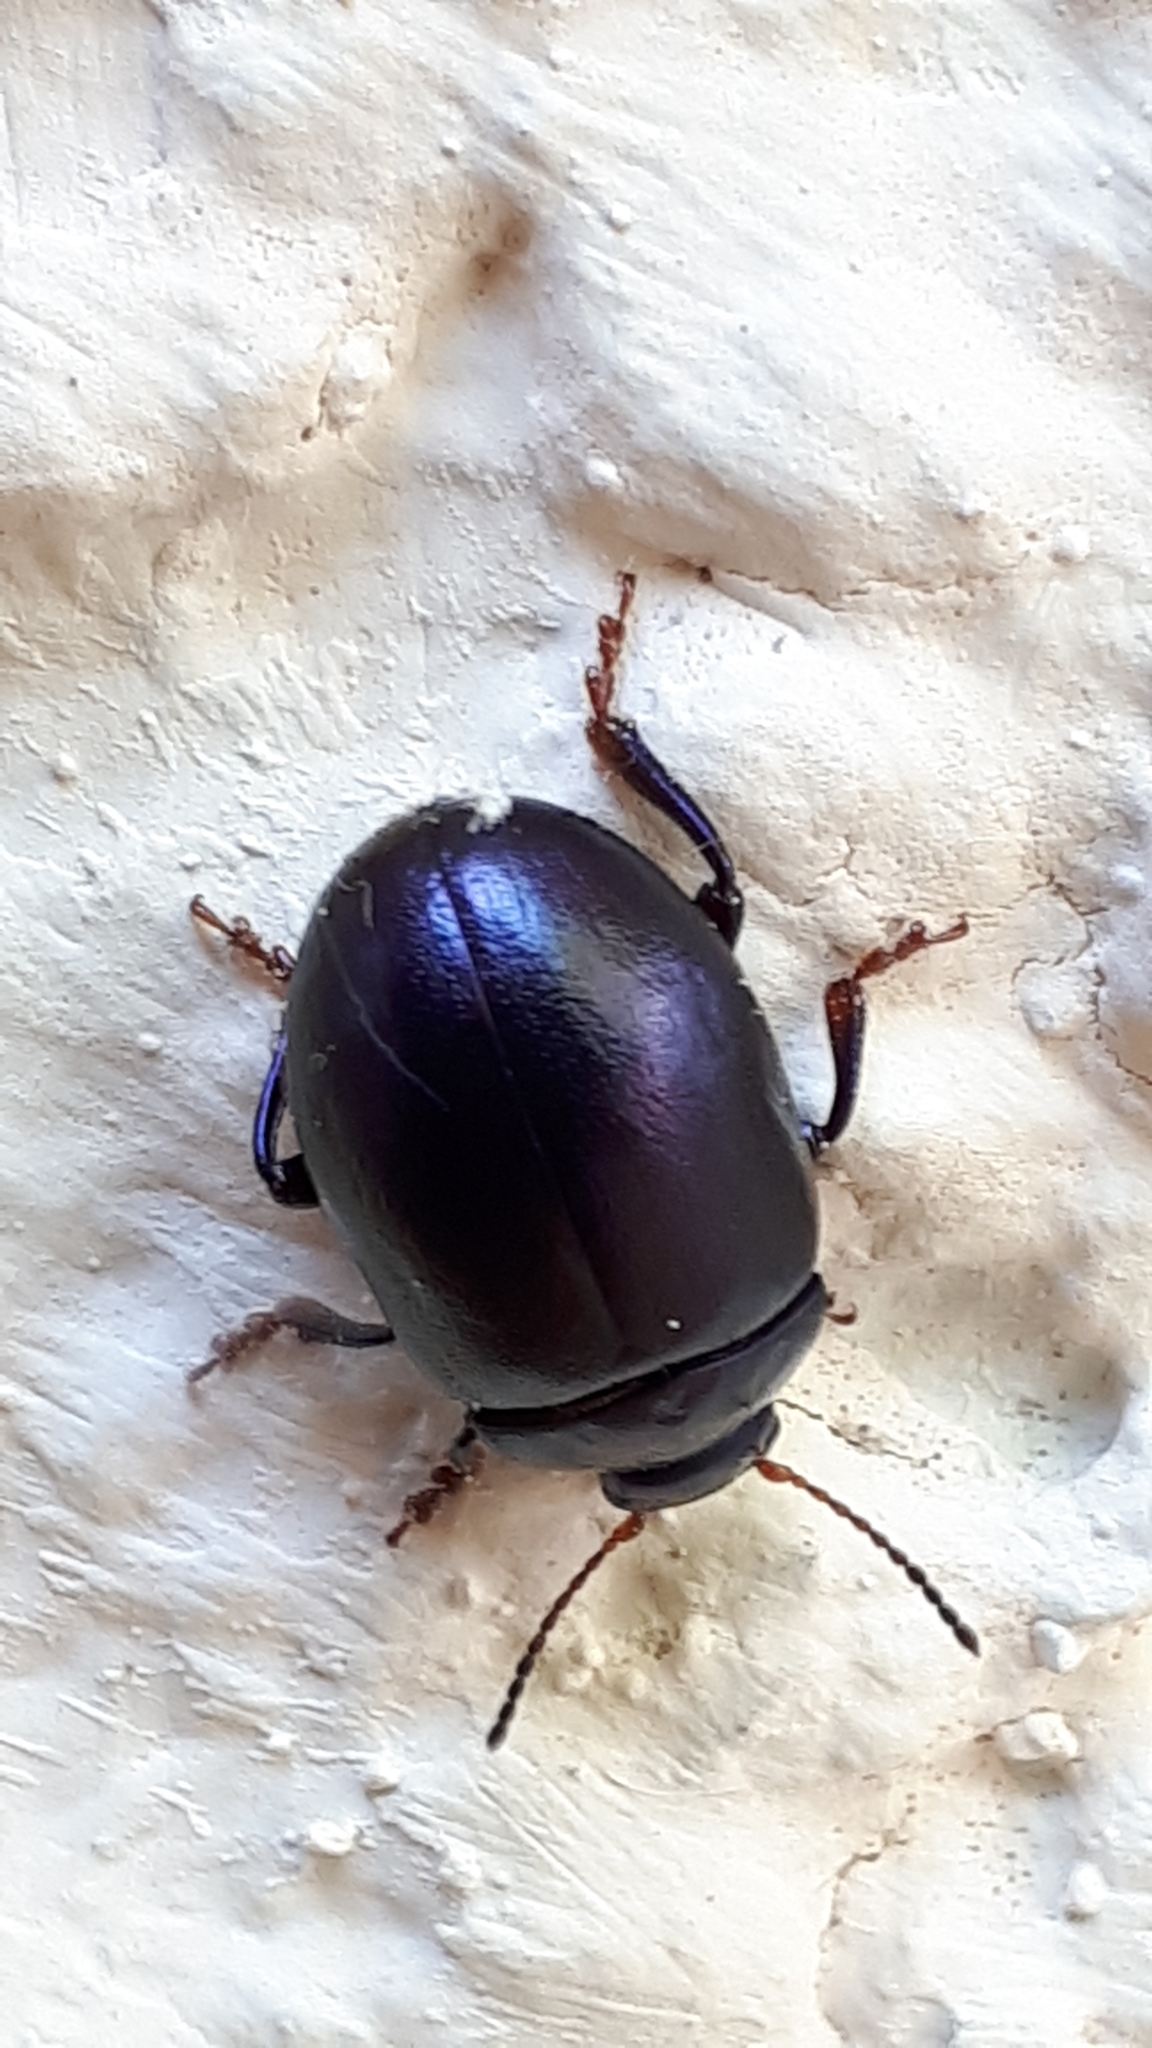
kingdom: Animalia
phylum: Arthropoda
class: Insecta
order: Coleoptera
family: Chrysomelidae
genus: Chrysolina
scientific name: Chrysolina sturmi
